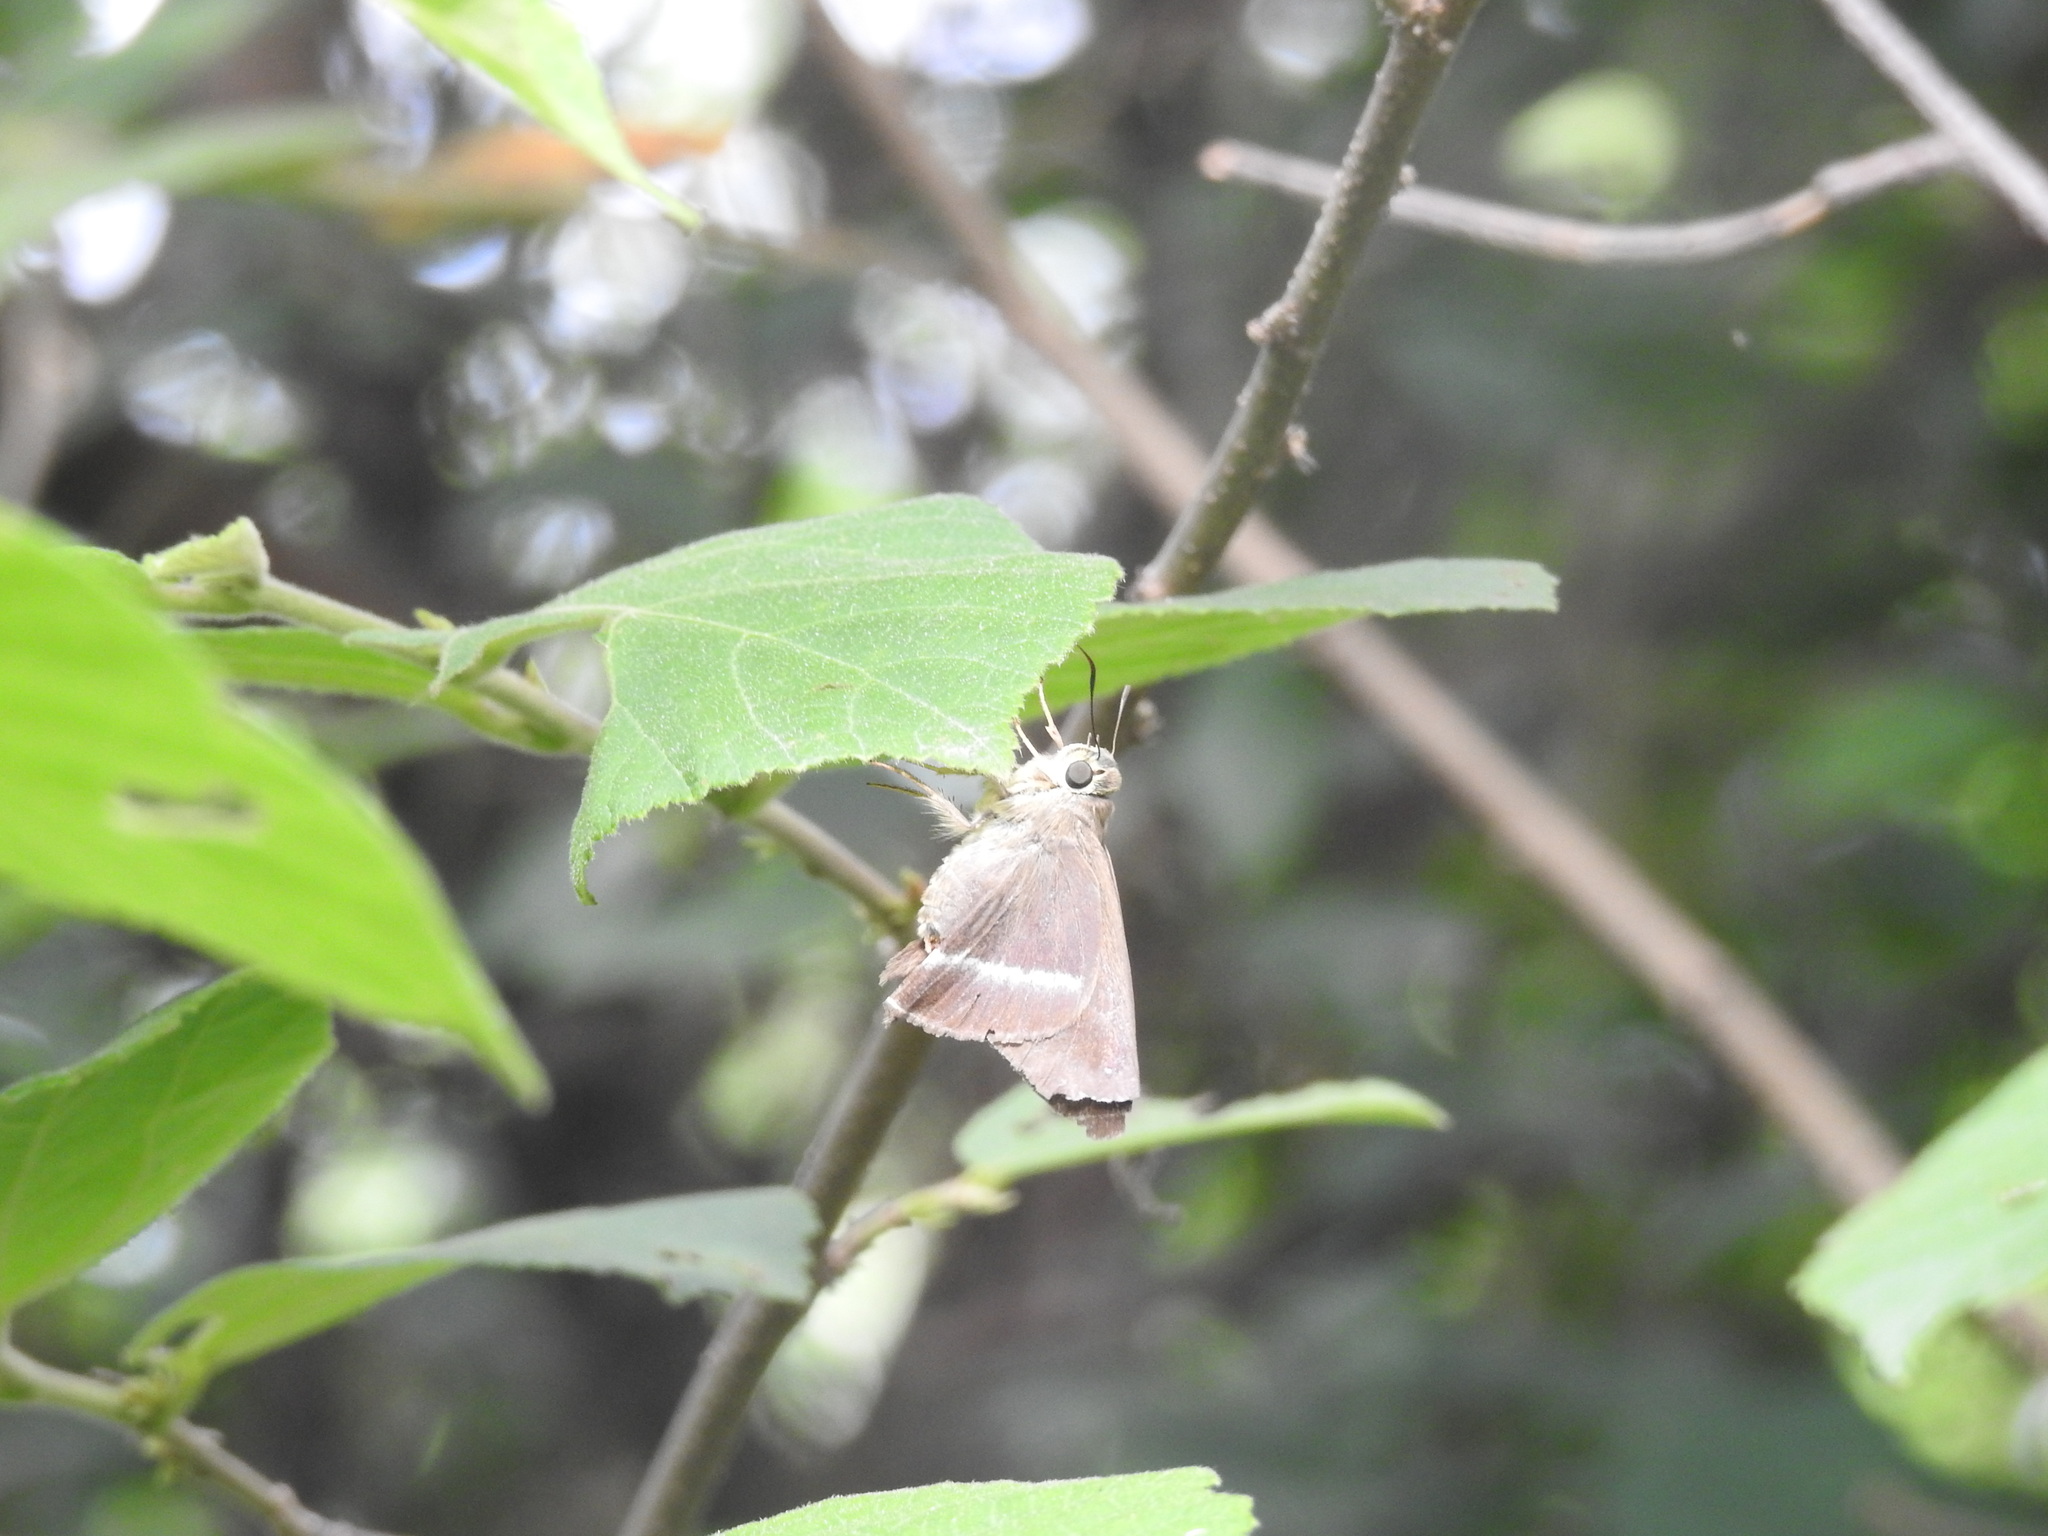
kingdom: Animalia
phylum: Arthropoda
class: Insecta
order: Lepidoptera
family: Hesperiidae
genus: Hasora
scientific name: Hasora chromus
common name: Common banded awl
